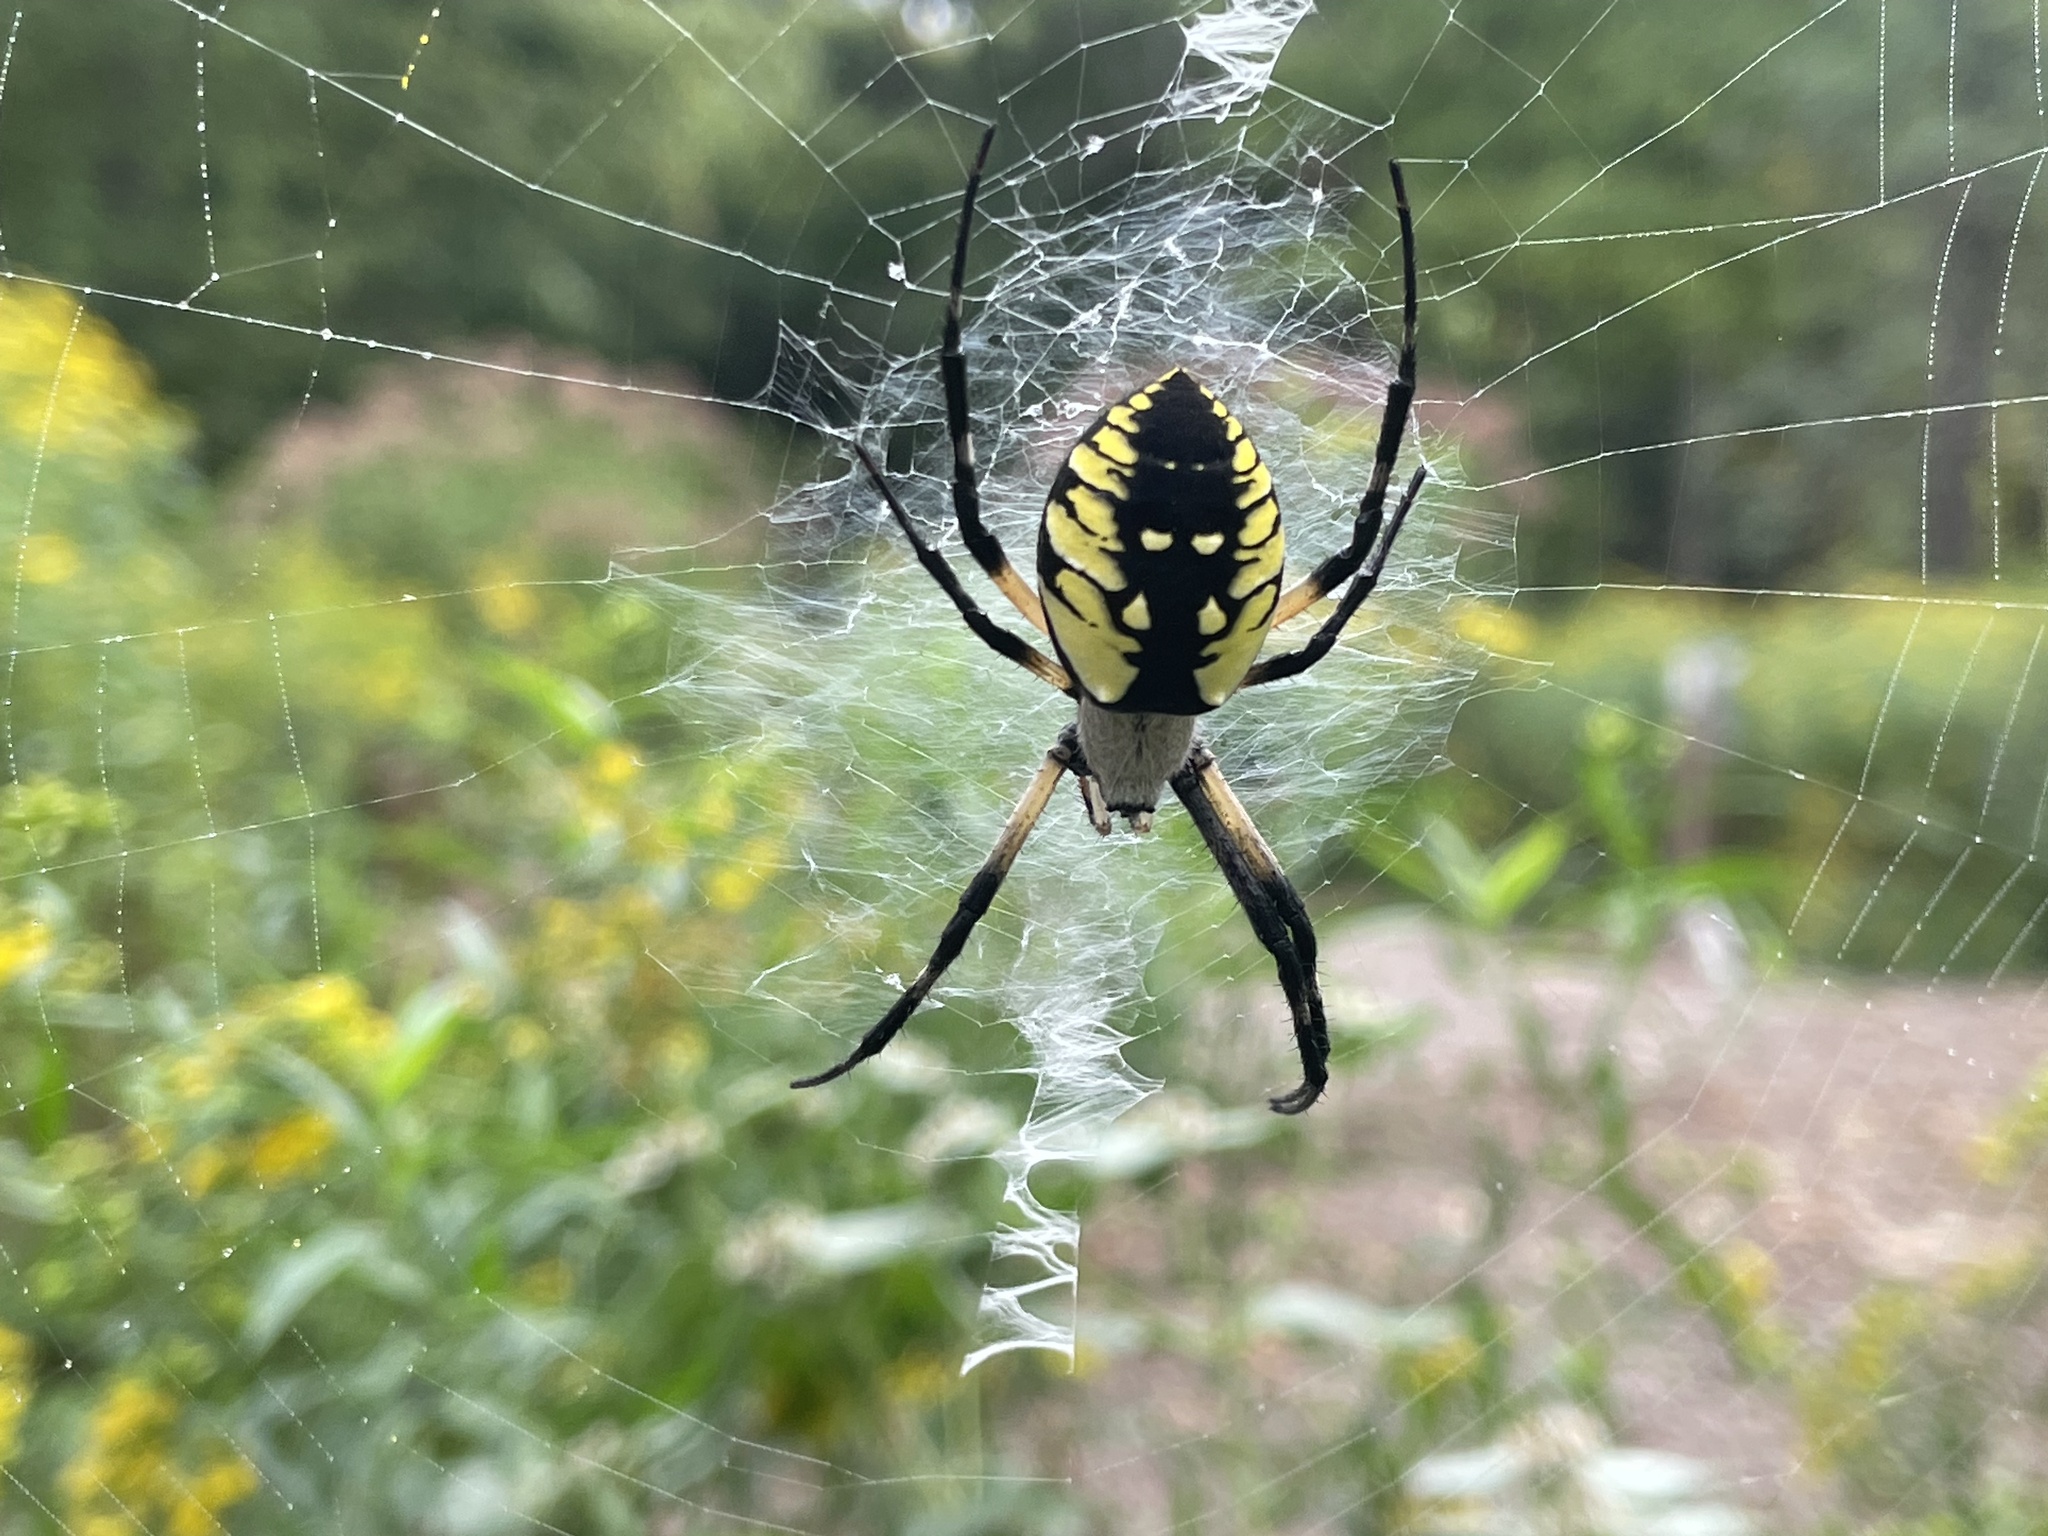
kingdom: Animalia
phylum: Arthropoda
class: Arachnida
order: Araneae
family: Araneidae
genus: Argiope
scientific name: Argiope aurantia
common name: Orb weavers
